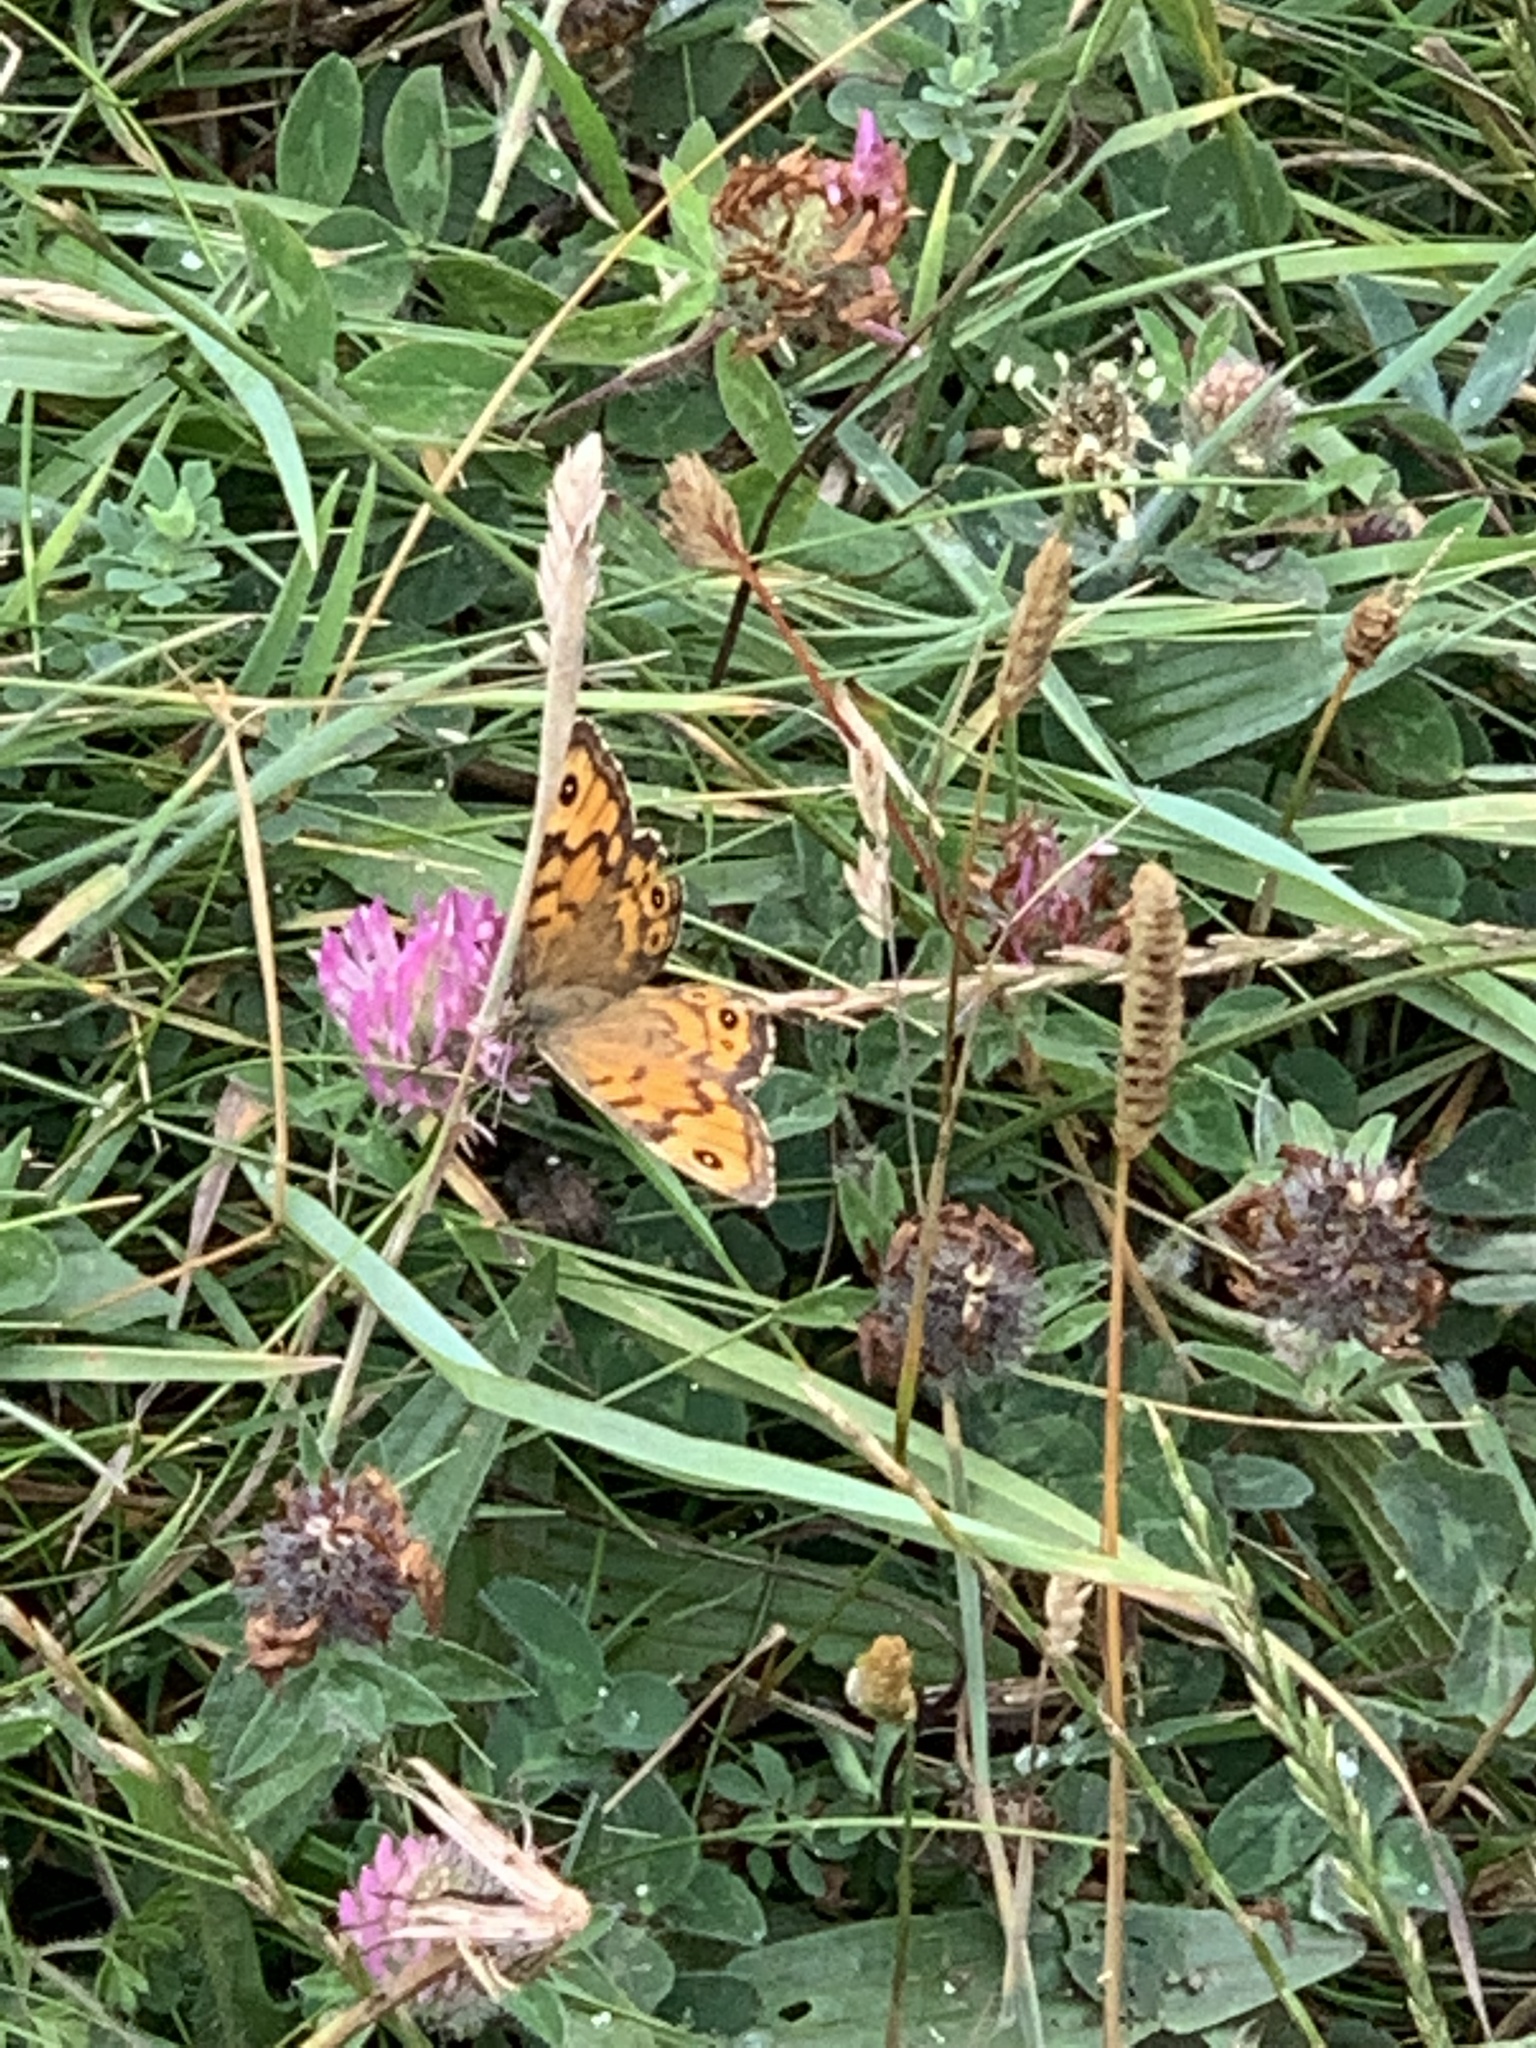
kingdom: Animalia
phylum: Arthropoda
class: Insecta
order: Lepidoptera
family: Nymphalidae
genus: Pararge
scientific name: Pararge Lasiommata megera
